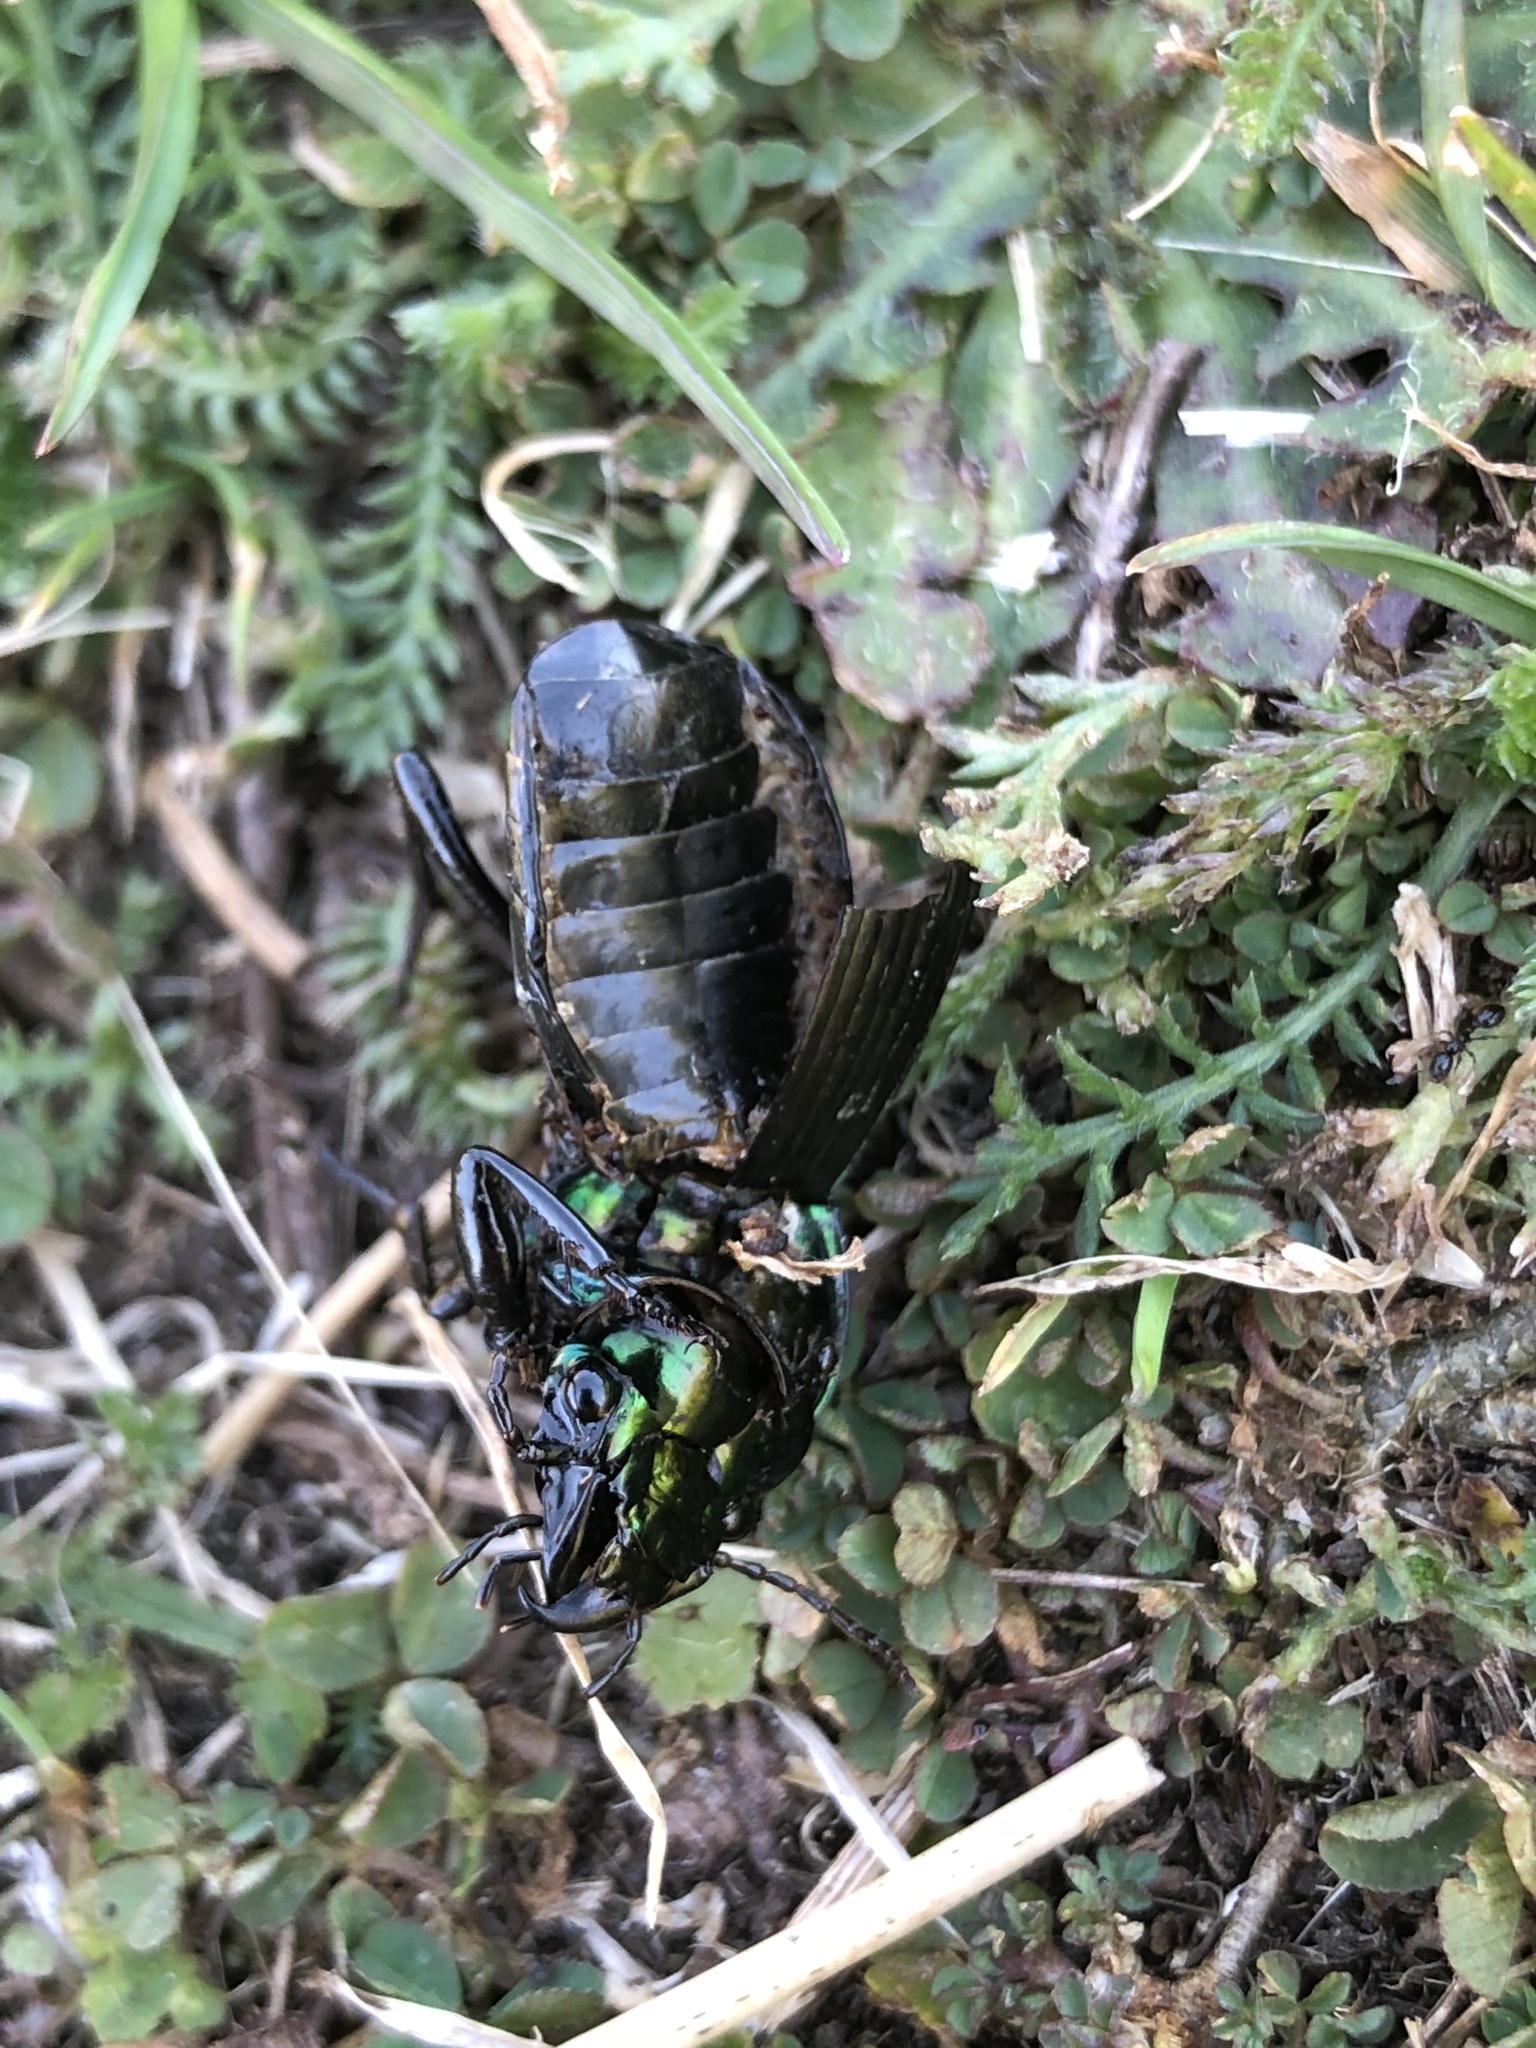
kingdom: Animalia
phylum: Arthropoda
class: Insecta
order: Coleoptera
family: Carabidae
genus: Megadromus
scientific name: Megadromus antarcticus
